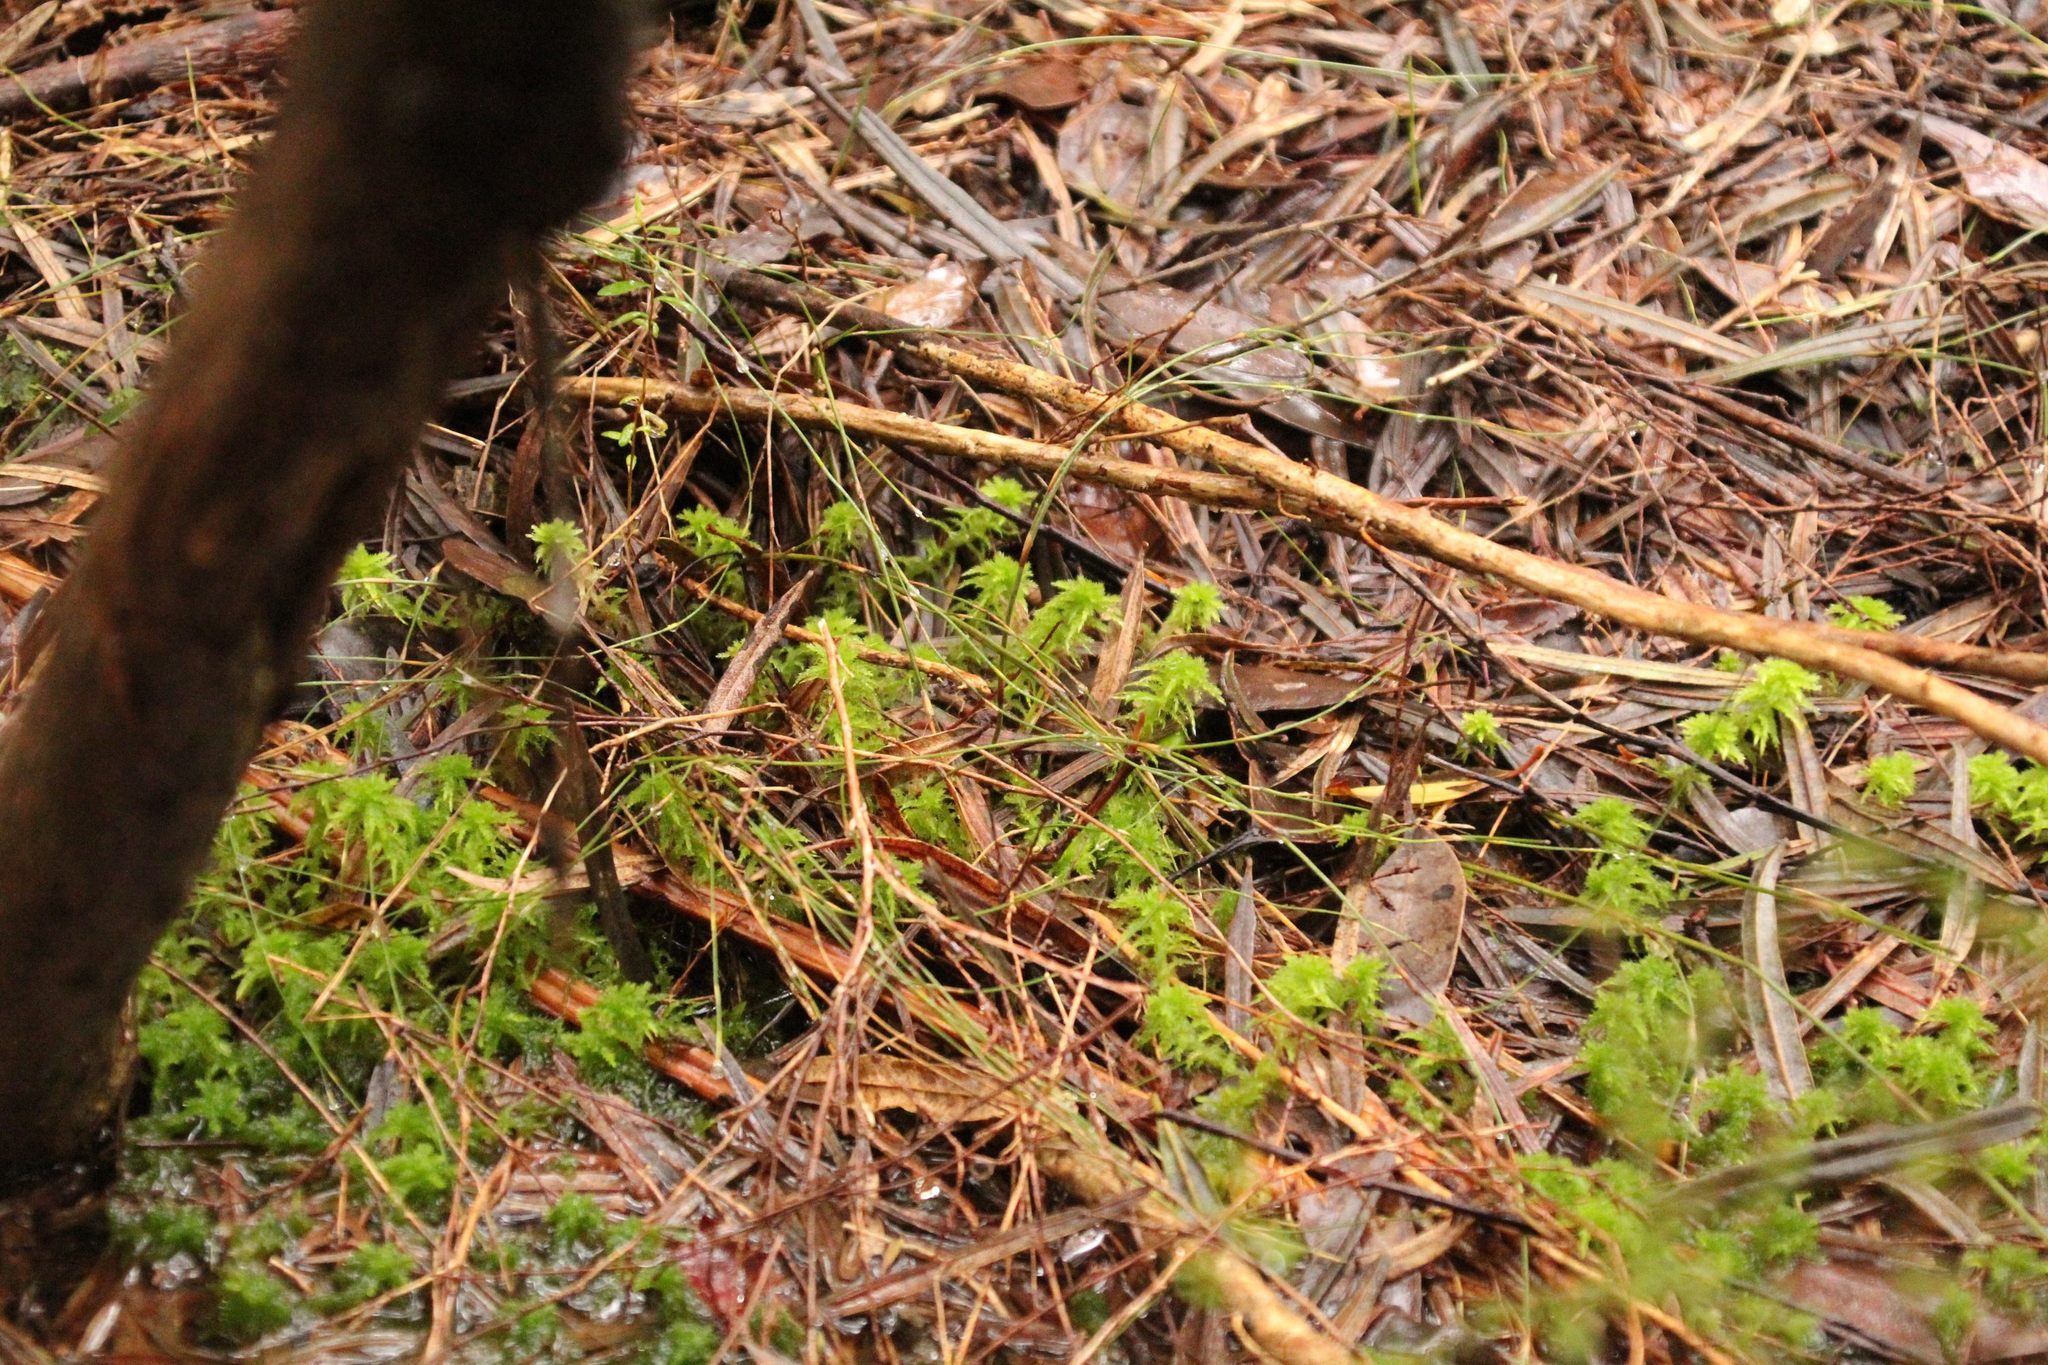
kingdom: Plantae
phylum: Bryophyta
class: Sphagnopsida
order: Sphagnales
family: Sphagnaceae
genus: Sphagnum
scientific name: Sphagnum novozelandicum
